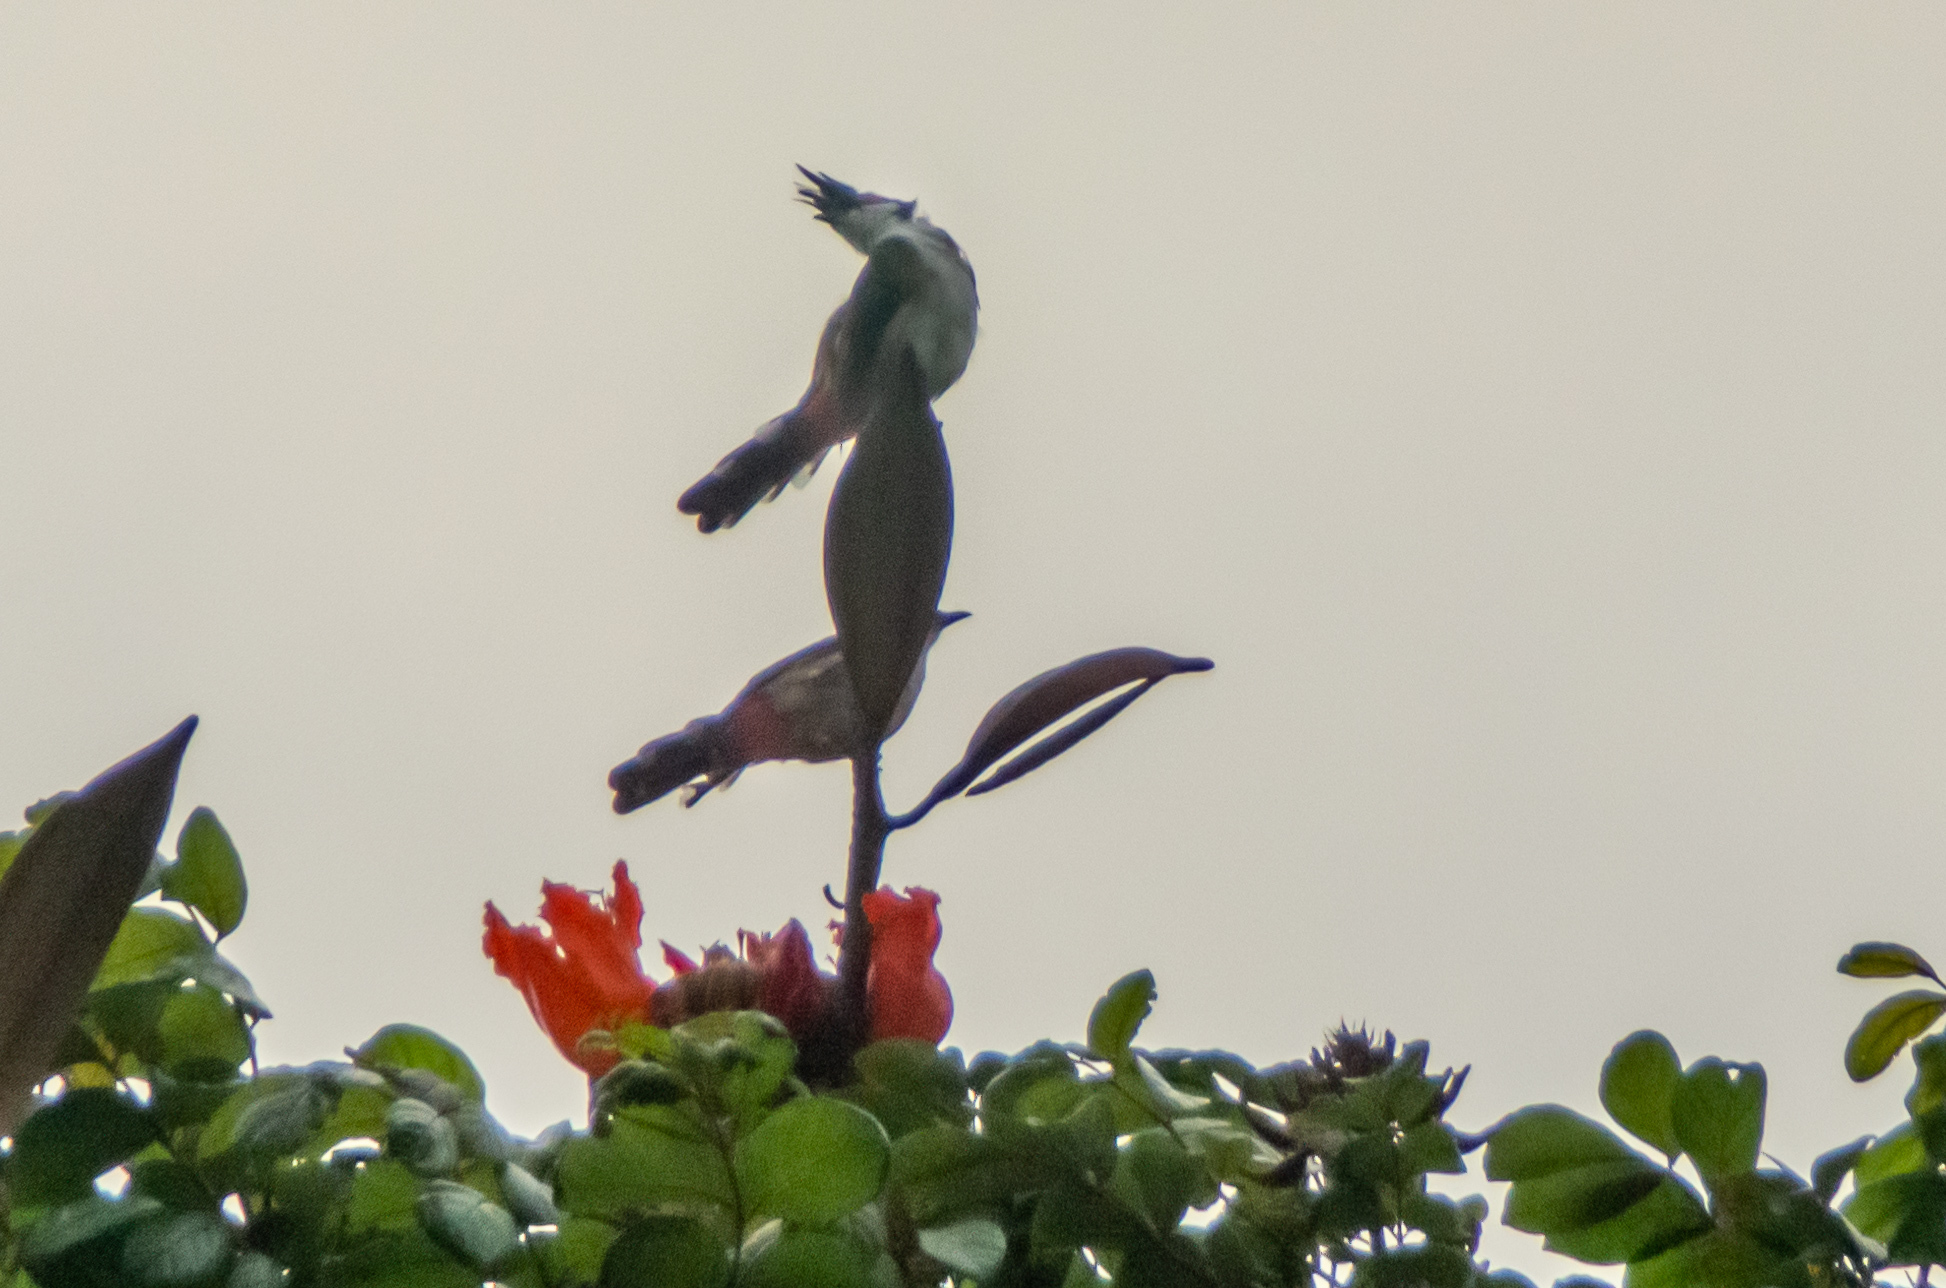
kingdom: Animalia
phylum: Chordata
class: Aves
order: Passeriformes
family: Pycnonotidae
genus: Pycnonotus
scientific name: Pycnonotus jocosus
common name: Red-whiskered bulbul
